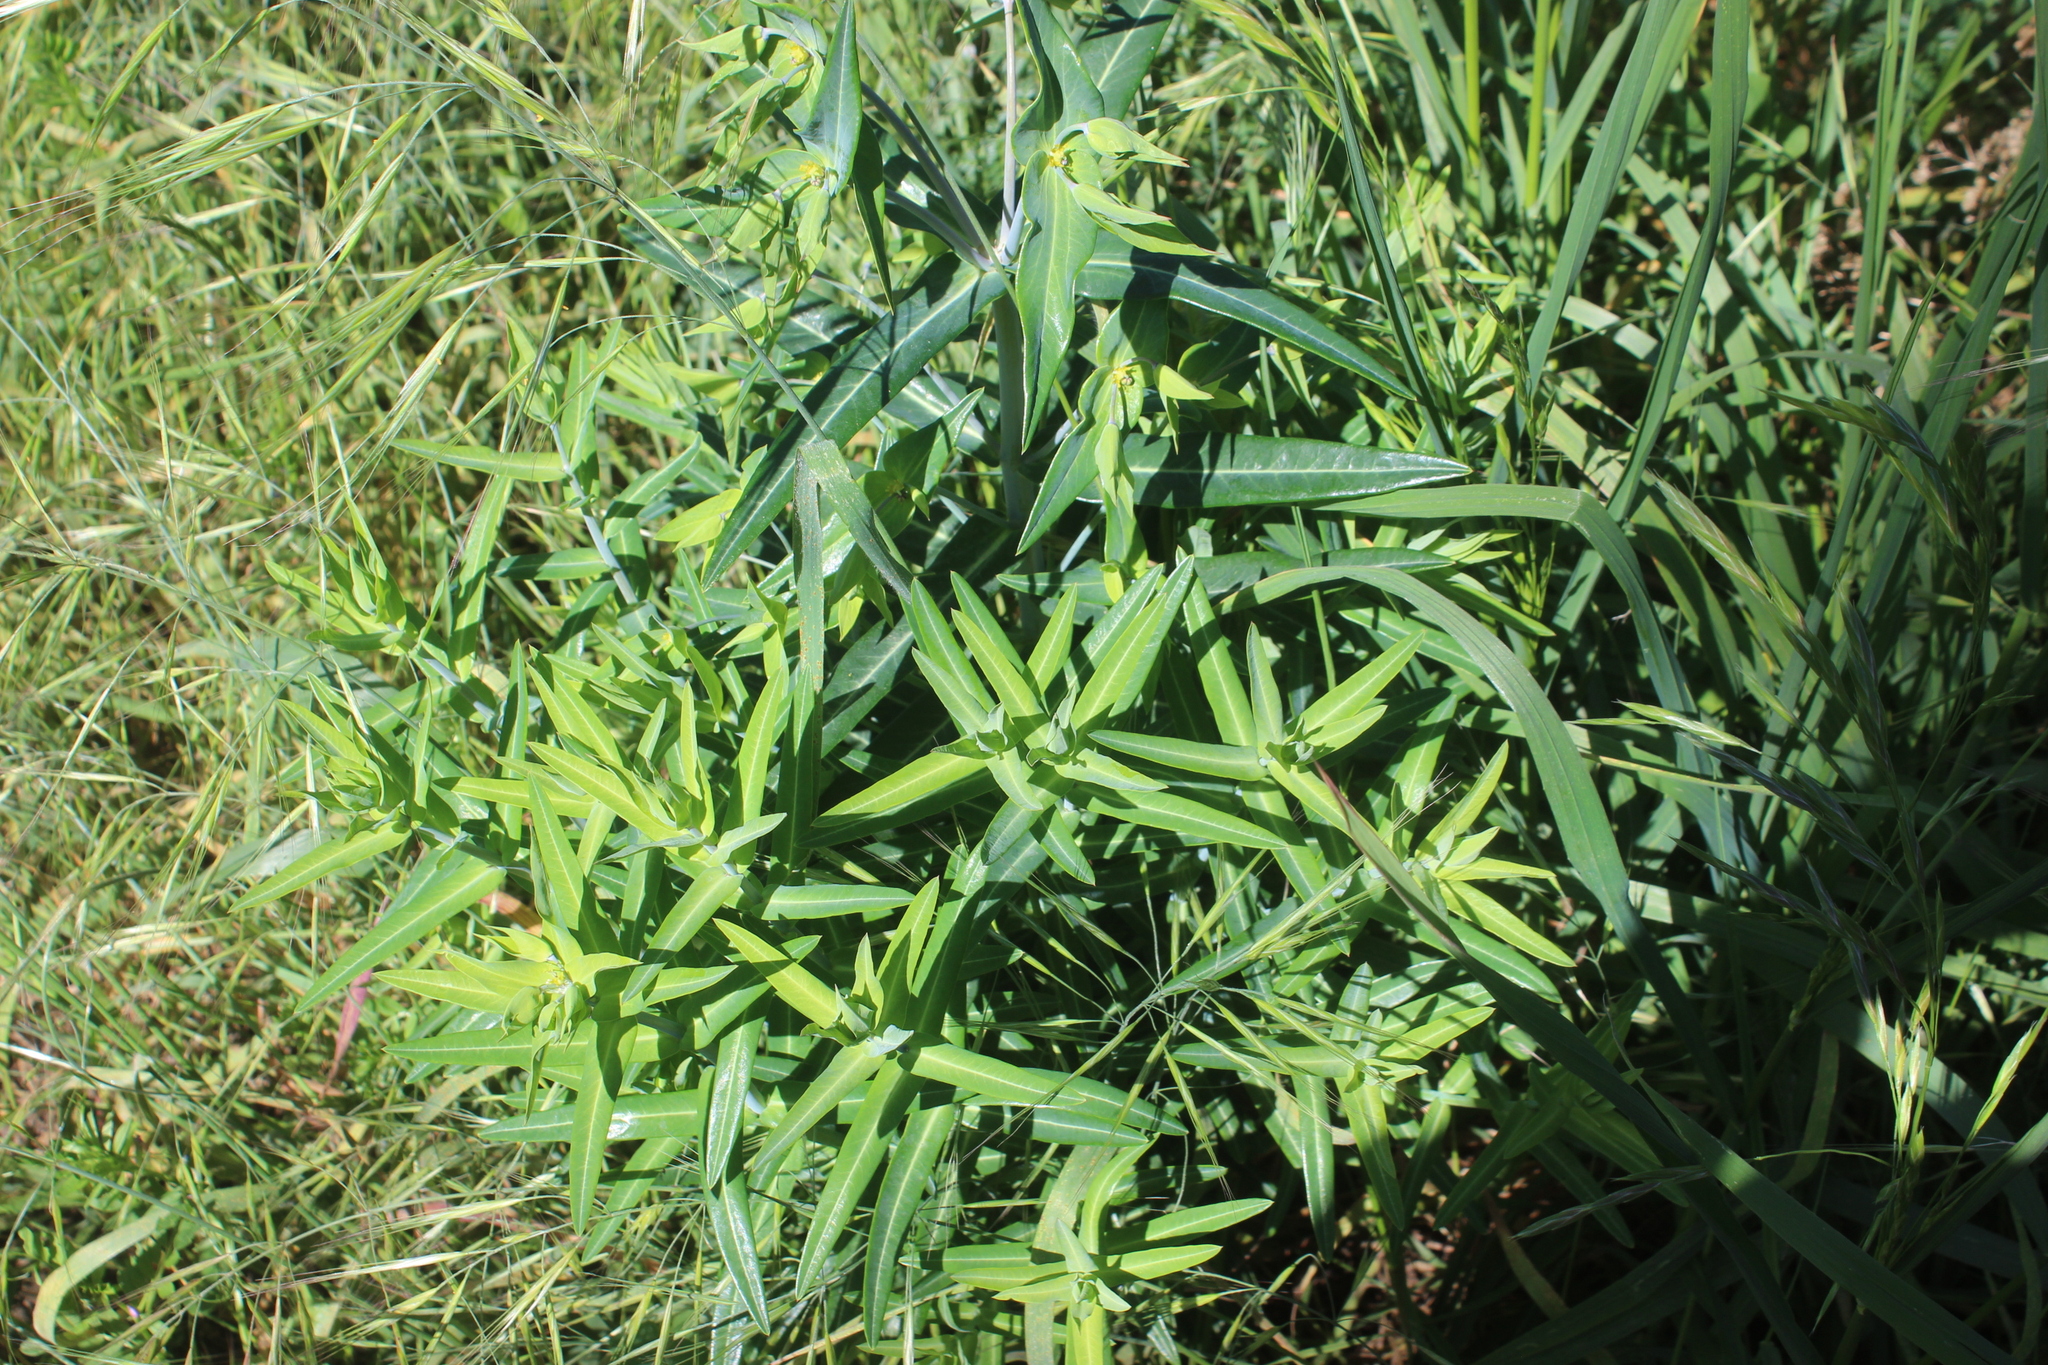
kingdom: Plantae
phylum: Tracheophyta
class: Magnoliopsida
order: Malpighiales
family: Euphorbiaceae
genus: Euphorbia
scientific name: Euphorbia lathyris
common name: Caper spurge
